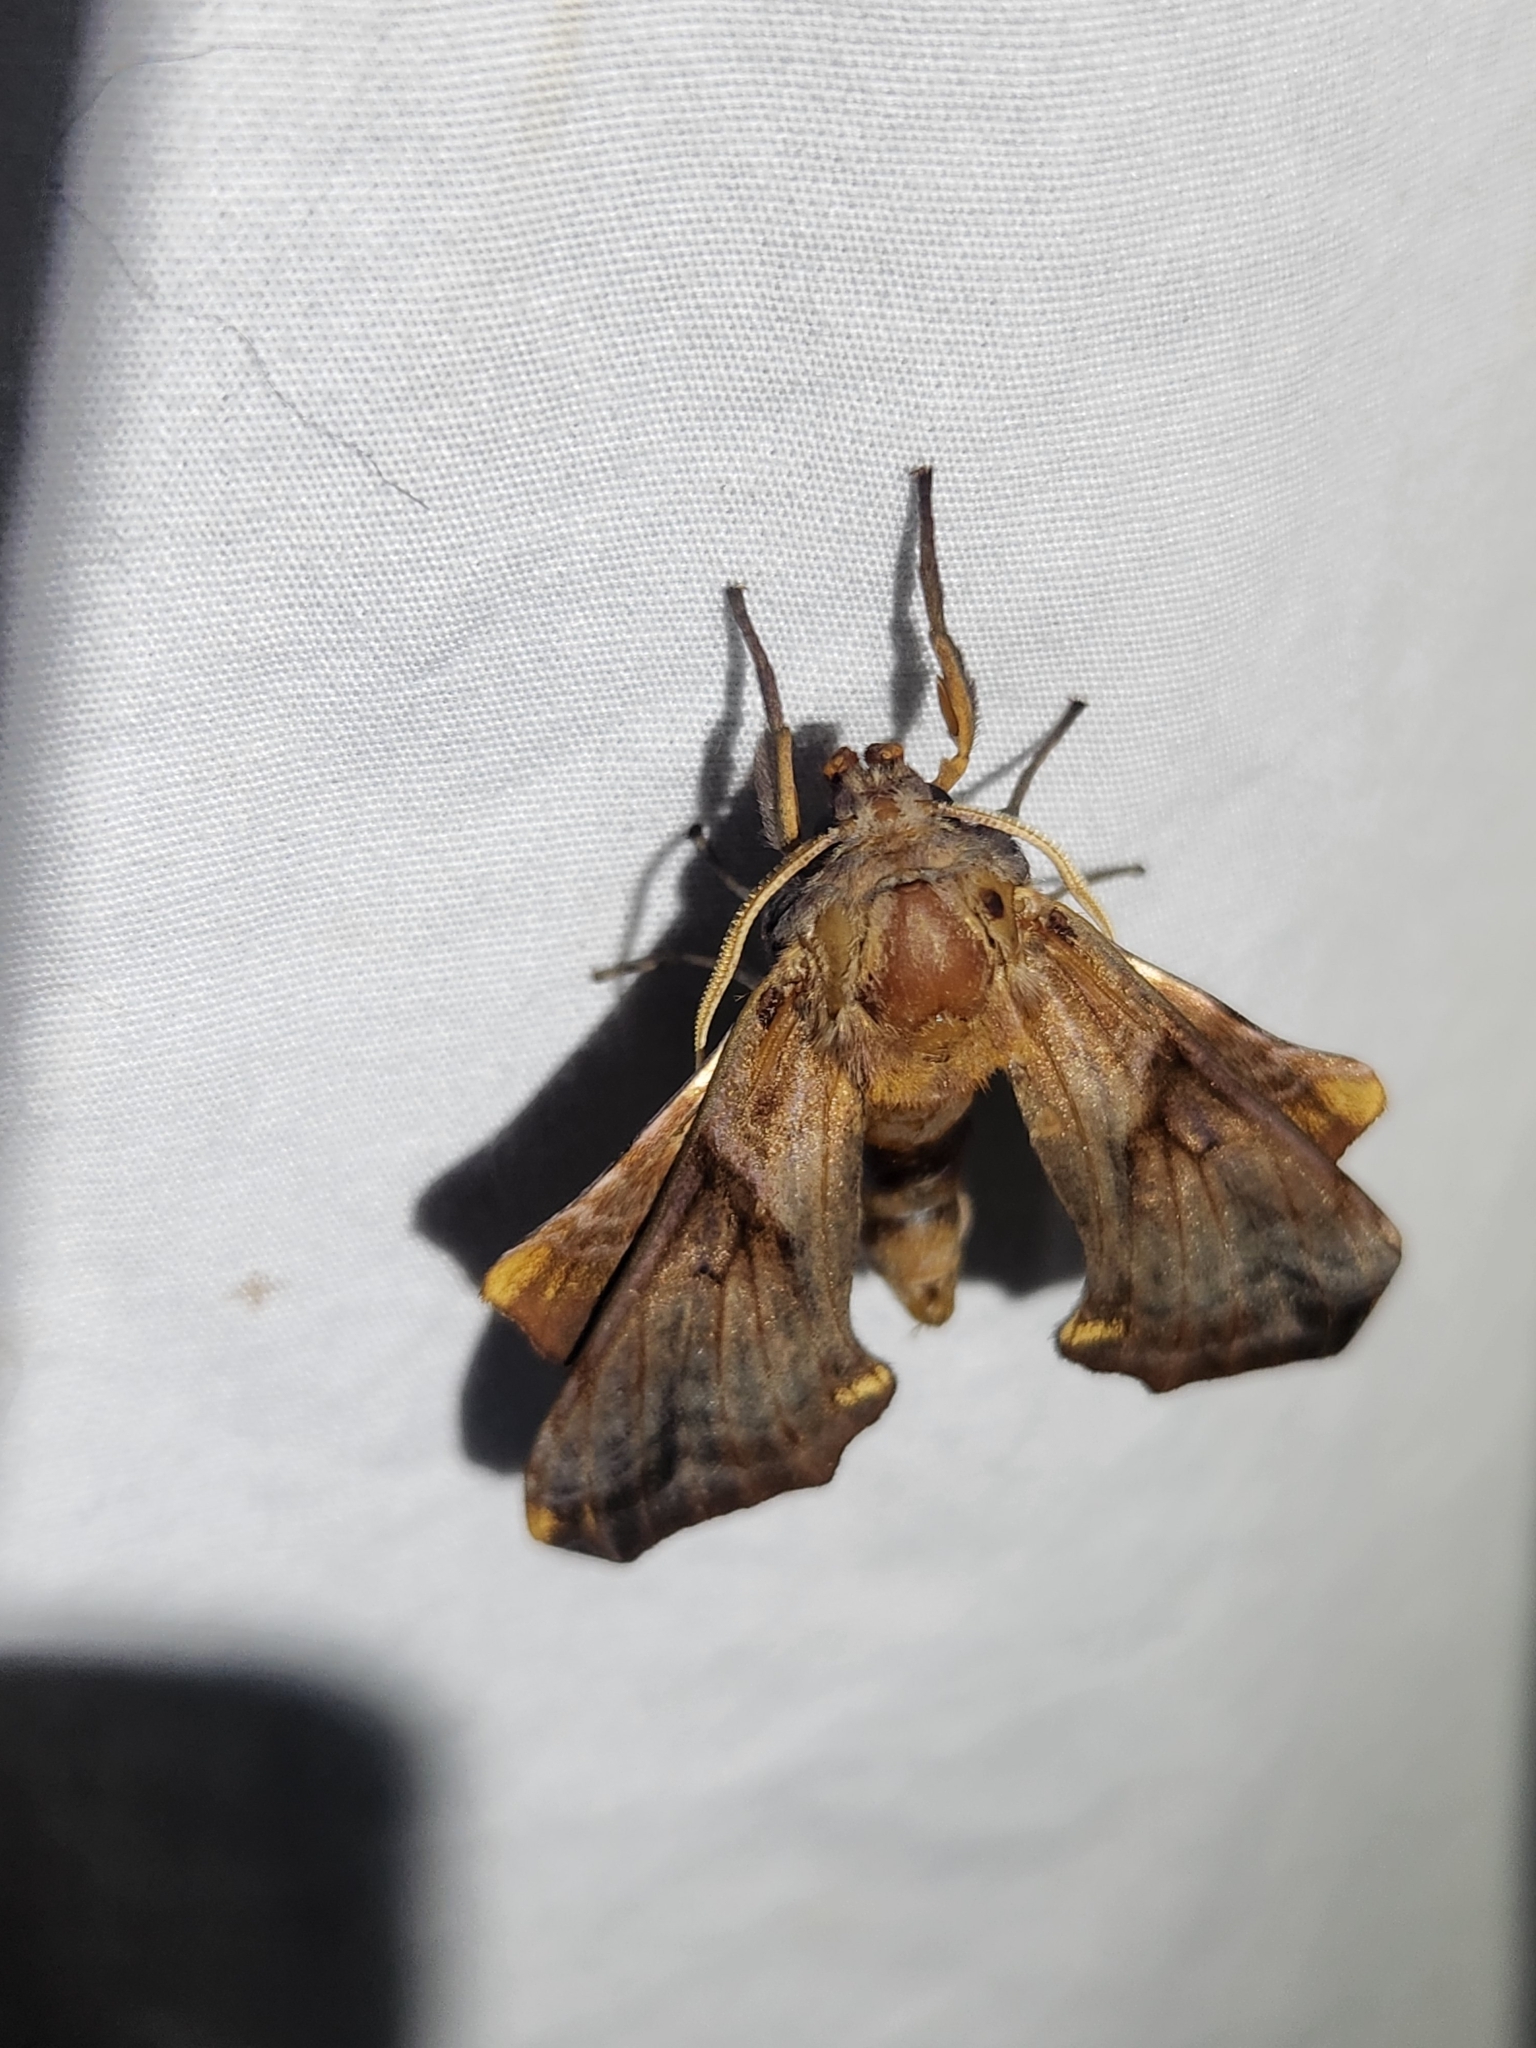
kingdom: Animalia
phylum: Arthropoda
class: Insecta
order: Lepidoptera
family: Sphingidae
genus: Paonias
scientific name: Paonias myops
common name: Small-eyed sphinx
